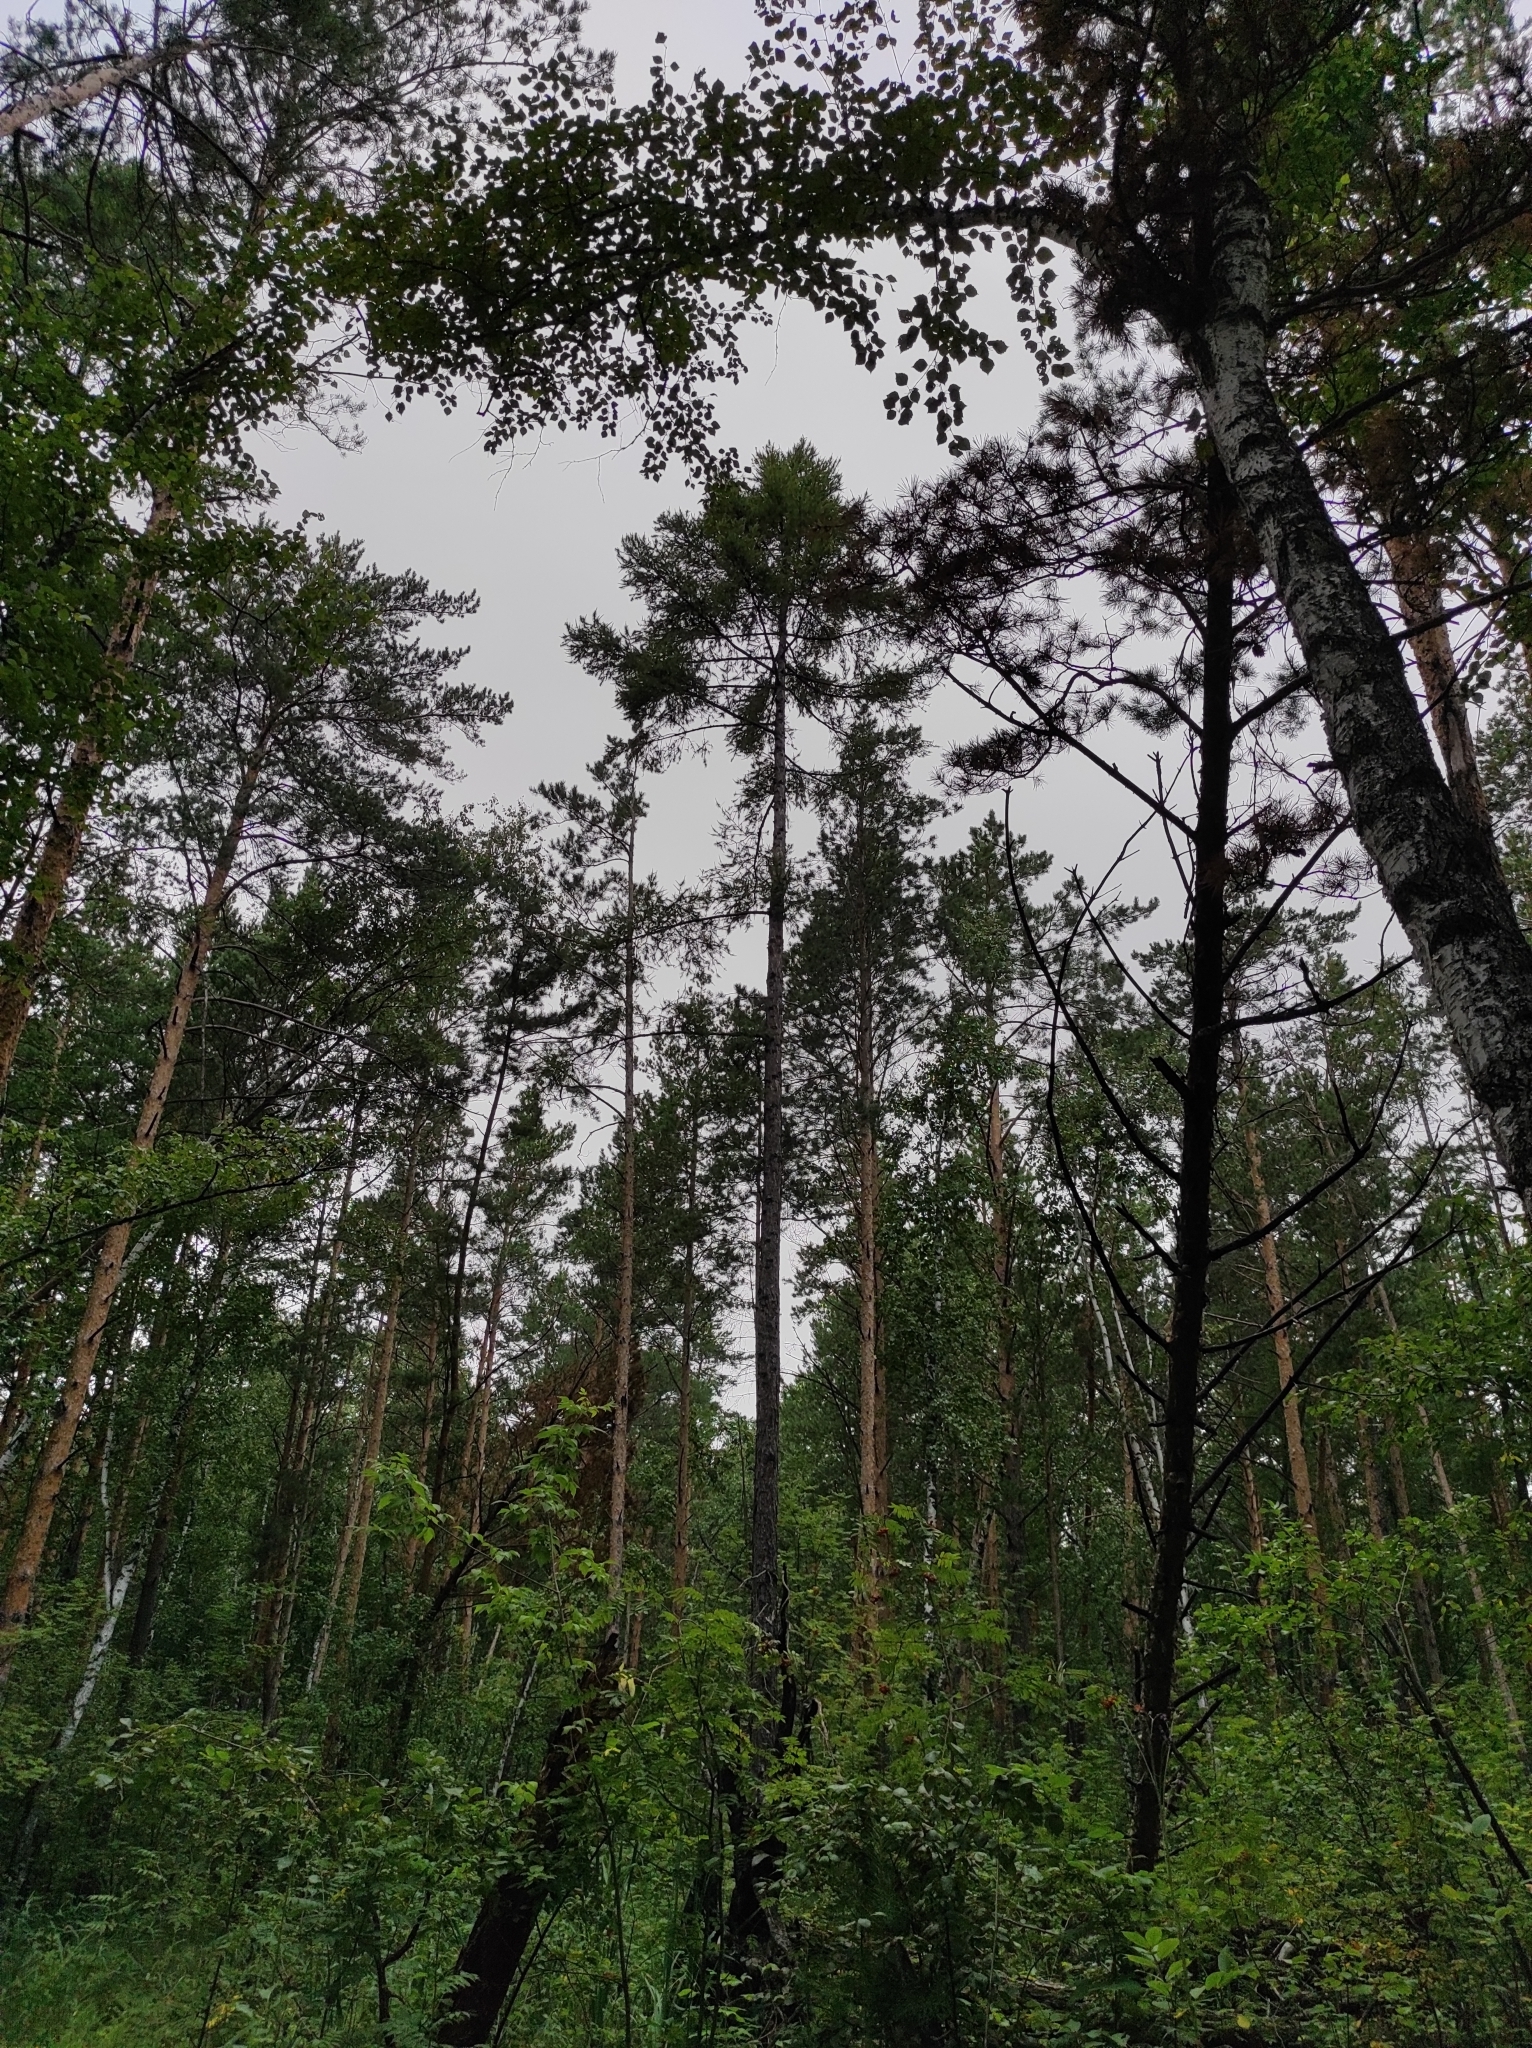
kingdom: Plantae
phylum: Tracheophyta
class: Pinopsida
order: Pinales
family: Pinaceae
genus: Larix
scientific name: Larix sibirica
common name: Siberian larch
